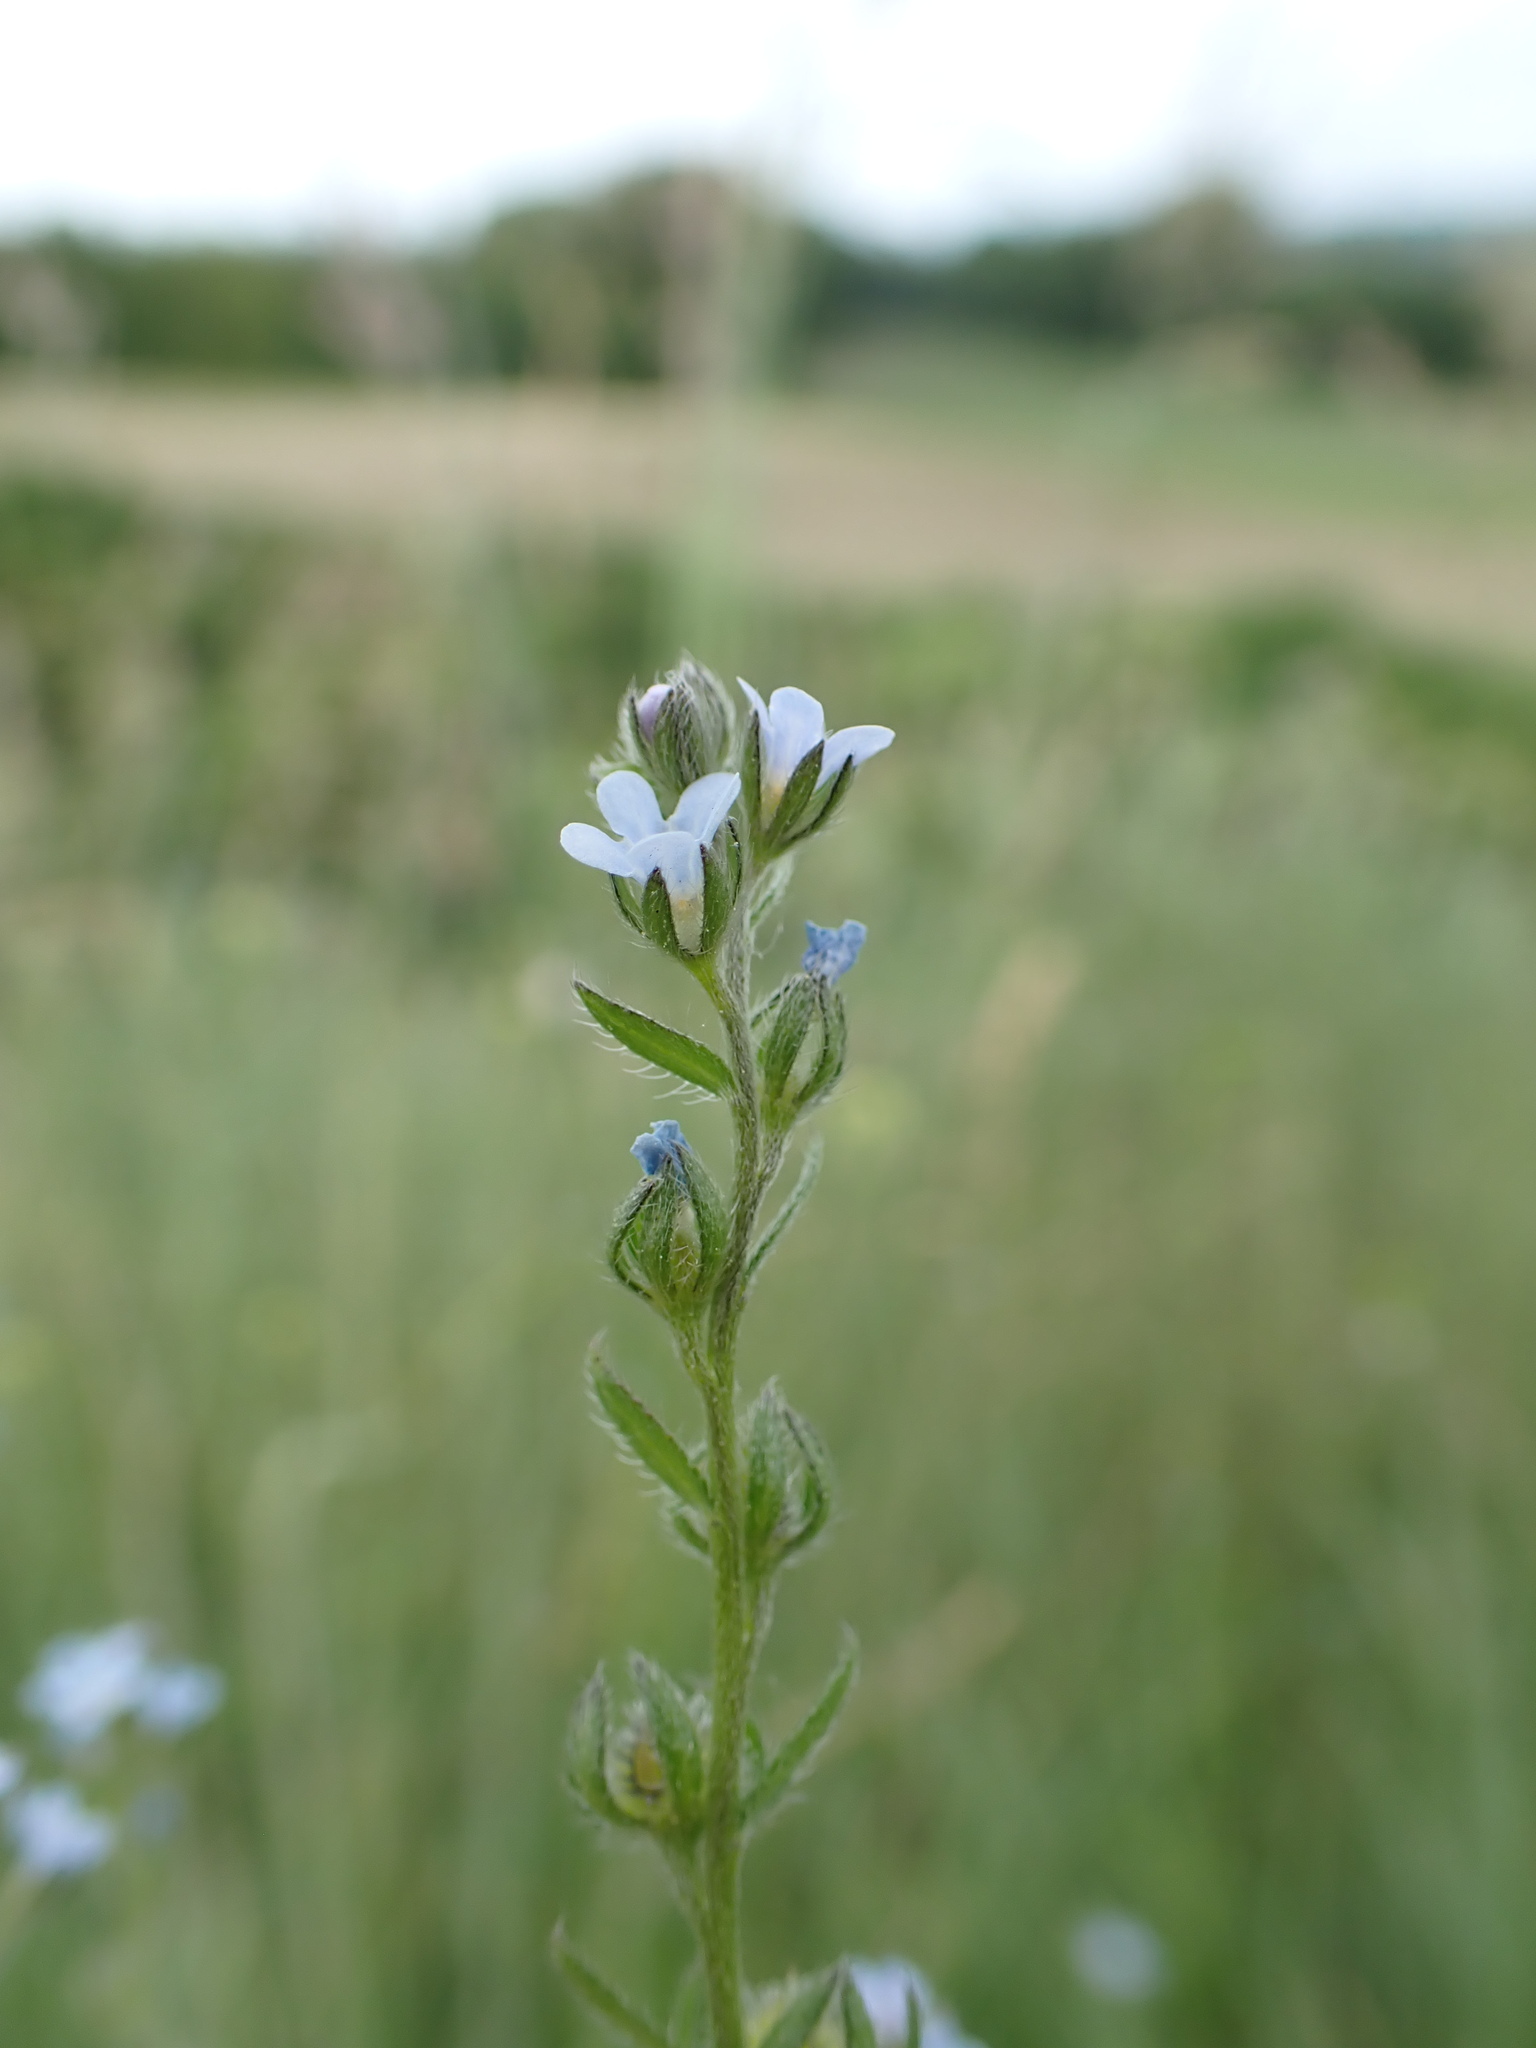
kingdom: Plantae
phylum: Tracheophyta
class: Magnoliopsida
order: Boraginales
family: Boraginaceae
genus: Lappula
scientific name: Lappula squarrosa
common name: European stickseed
